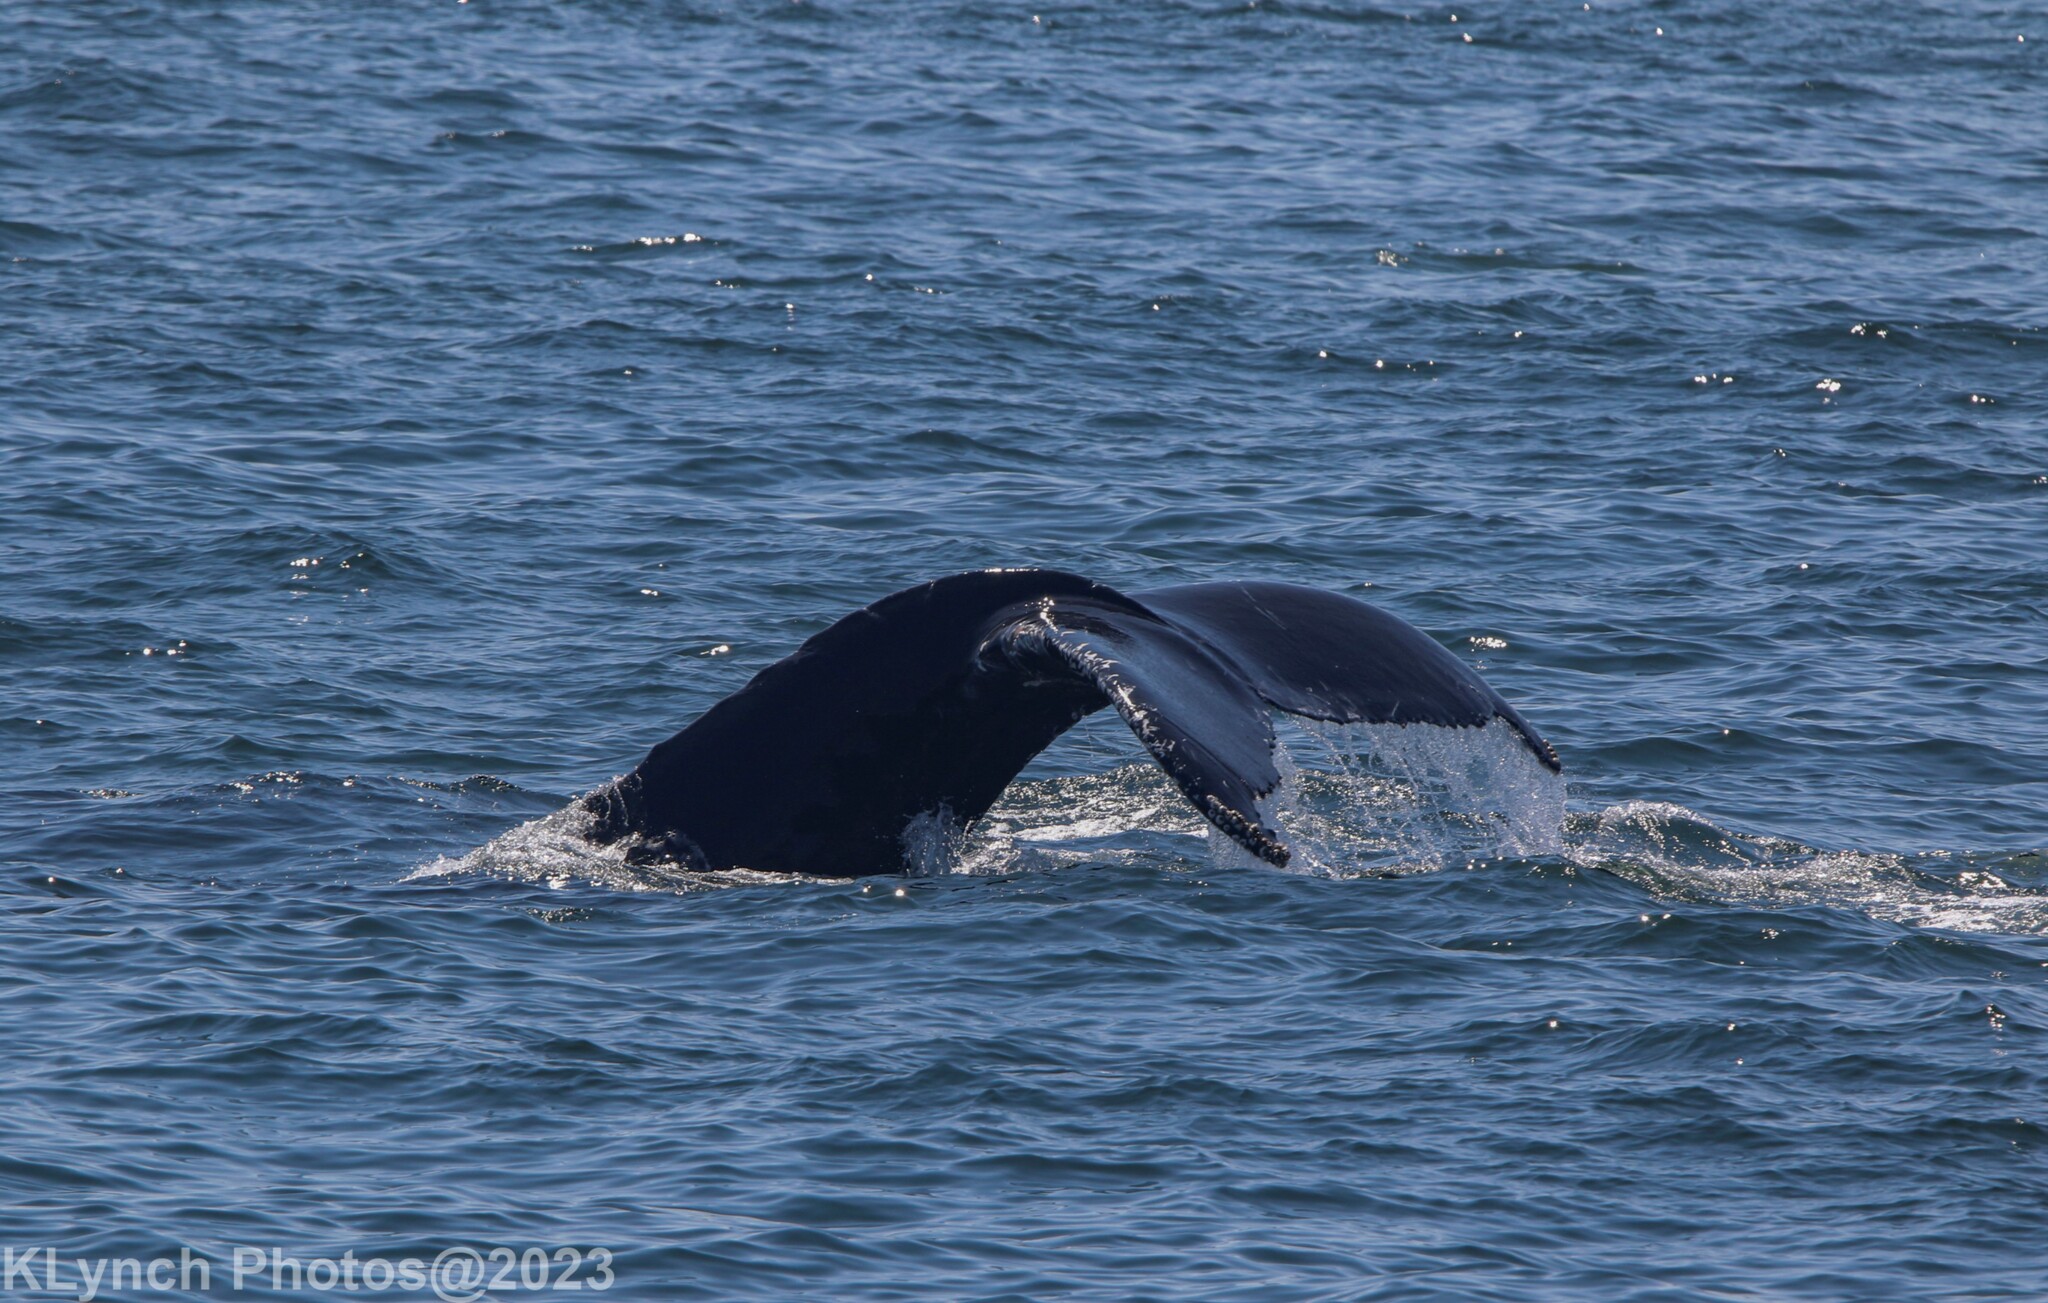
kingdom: Animalia
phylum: Chordata
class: Mammalia
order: Cetacea
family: Balaenopteridae
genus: Megaptera
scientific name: Megaptera novaeangliae
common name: Humpback whale
